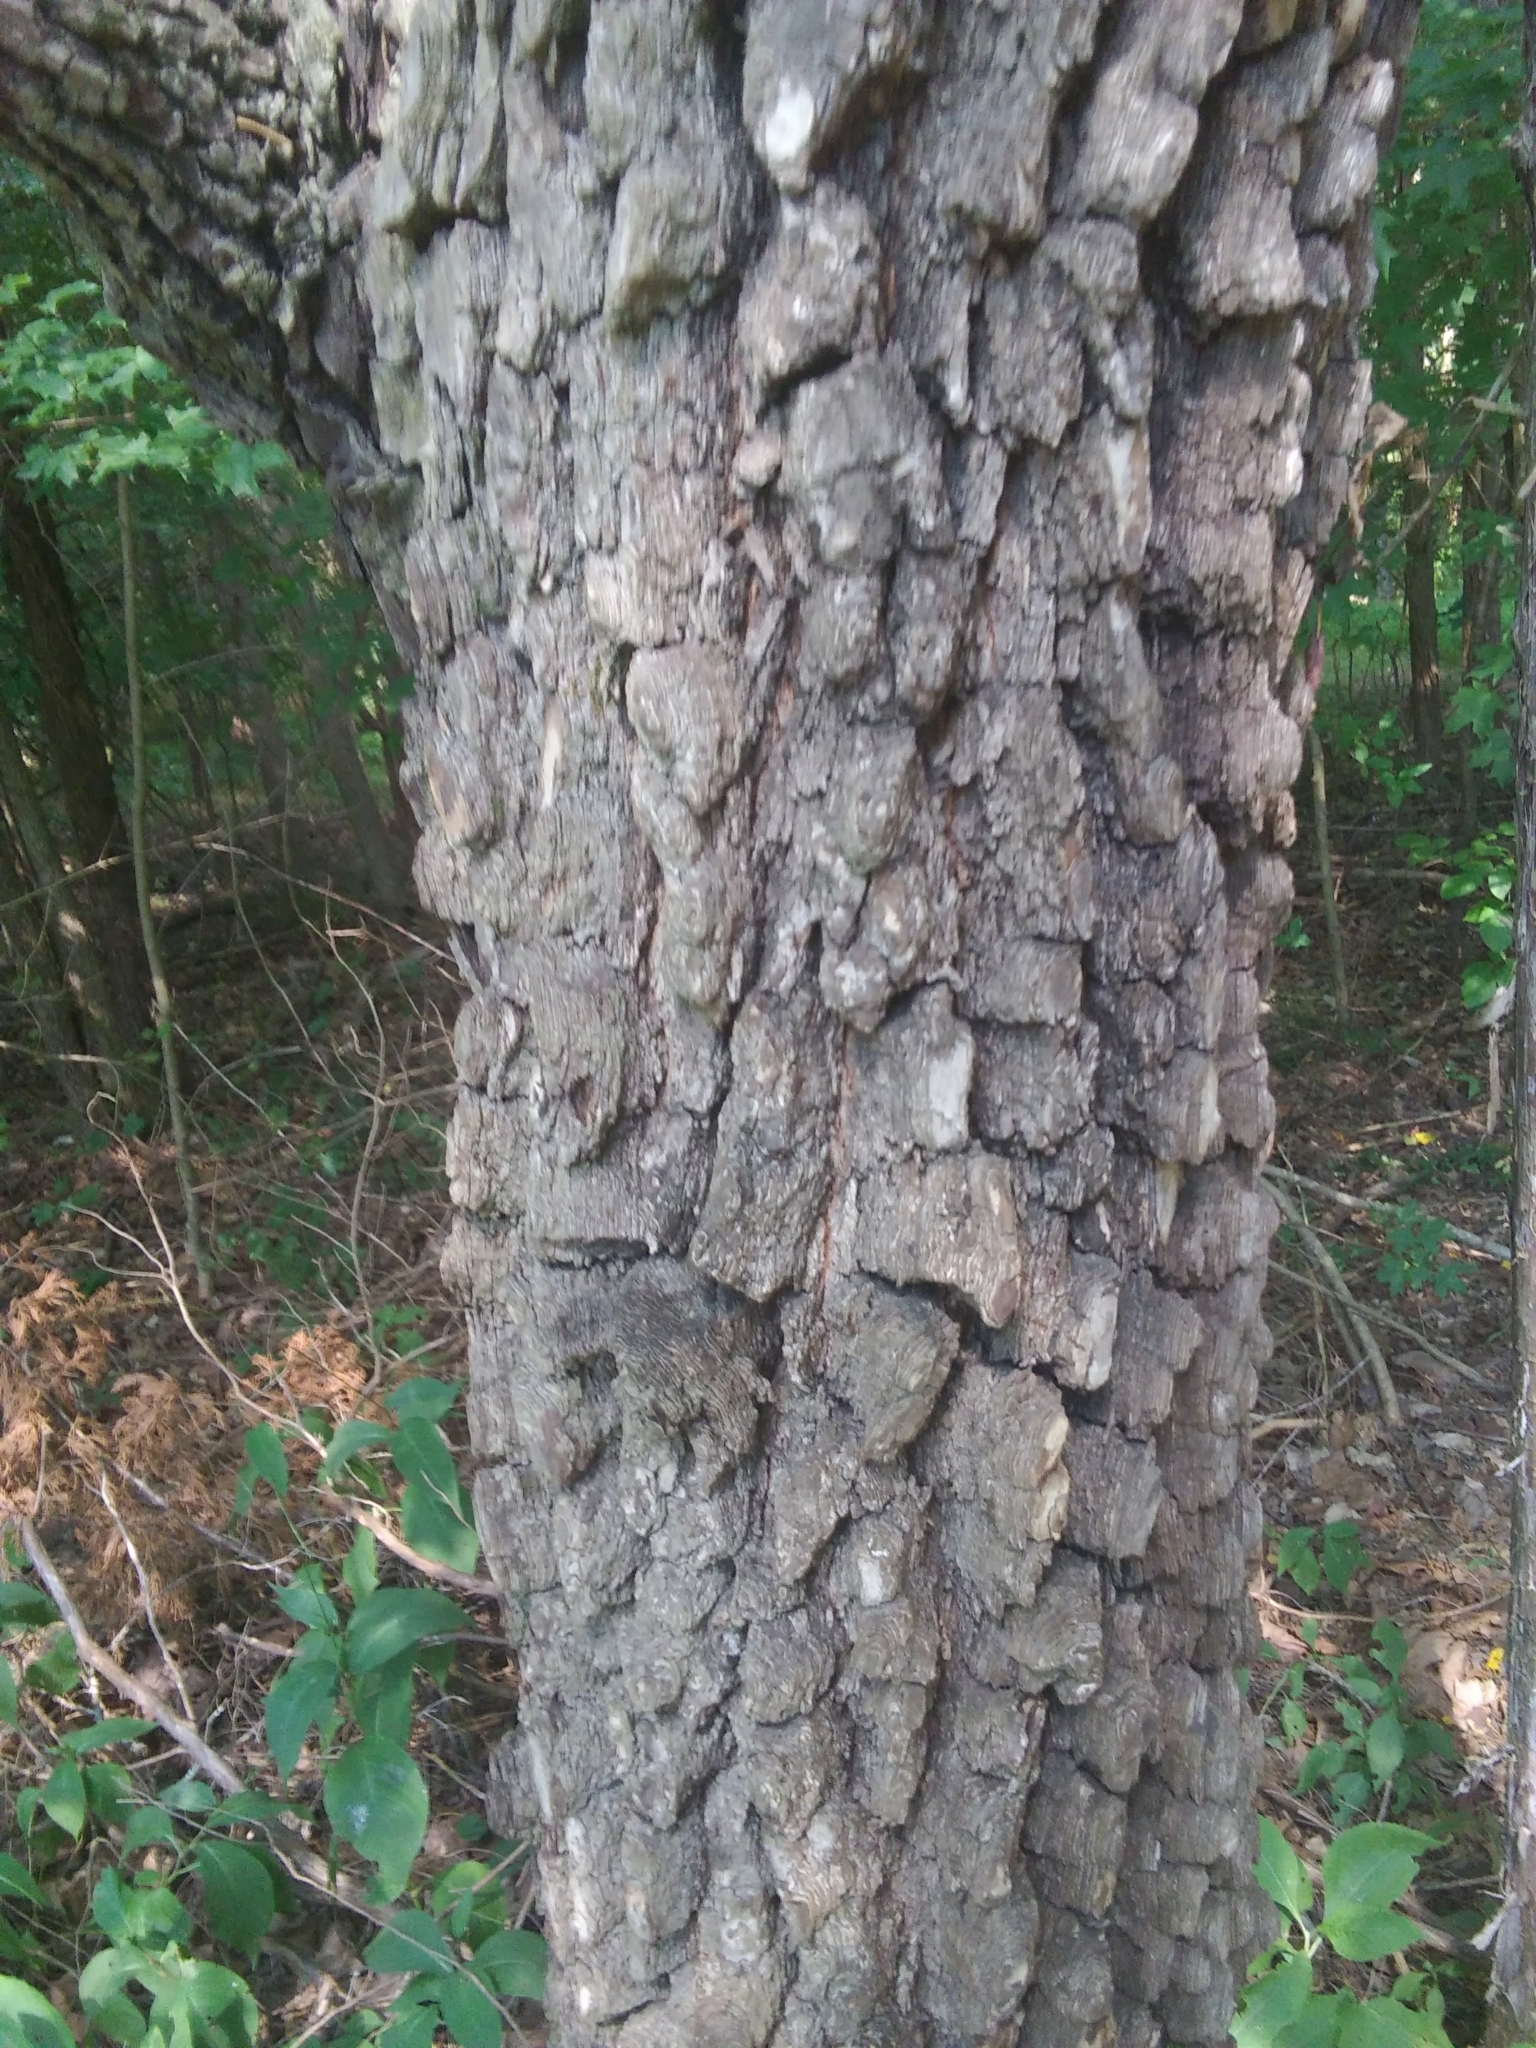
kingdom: Plantae
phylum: Tracheophyta
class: Magnoliopsida
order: Ericales
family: Ebenaceae
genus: Diospyros
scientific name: Diospyros virginiana
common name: Persimmon
